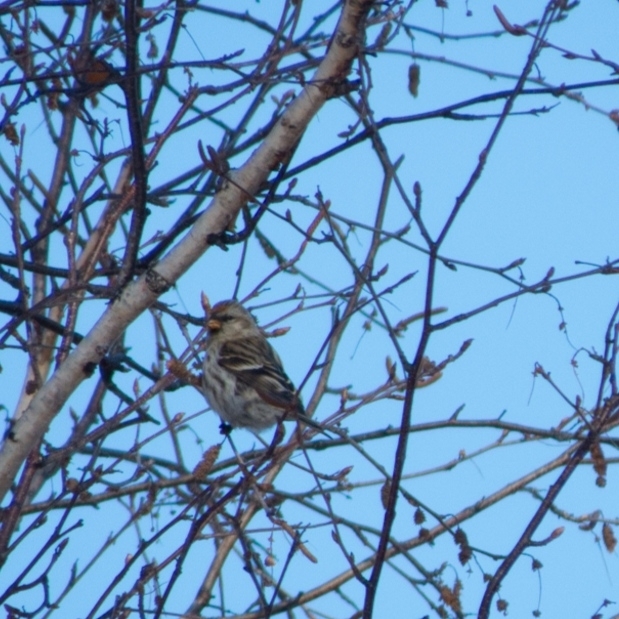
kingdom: Animalia
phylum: Chordata
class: Aves
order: Passeriformes
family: Fringillidae
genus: Acanthis
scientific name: Acanthis flammea
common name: Common redpoll
